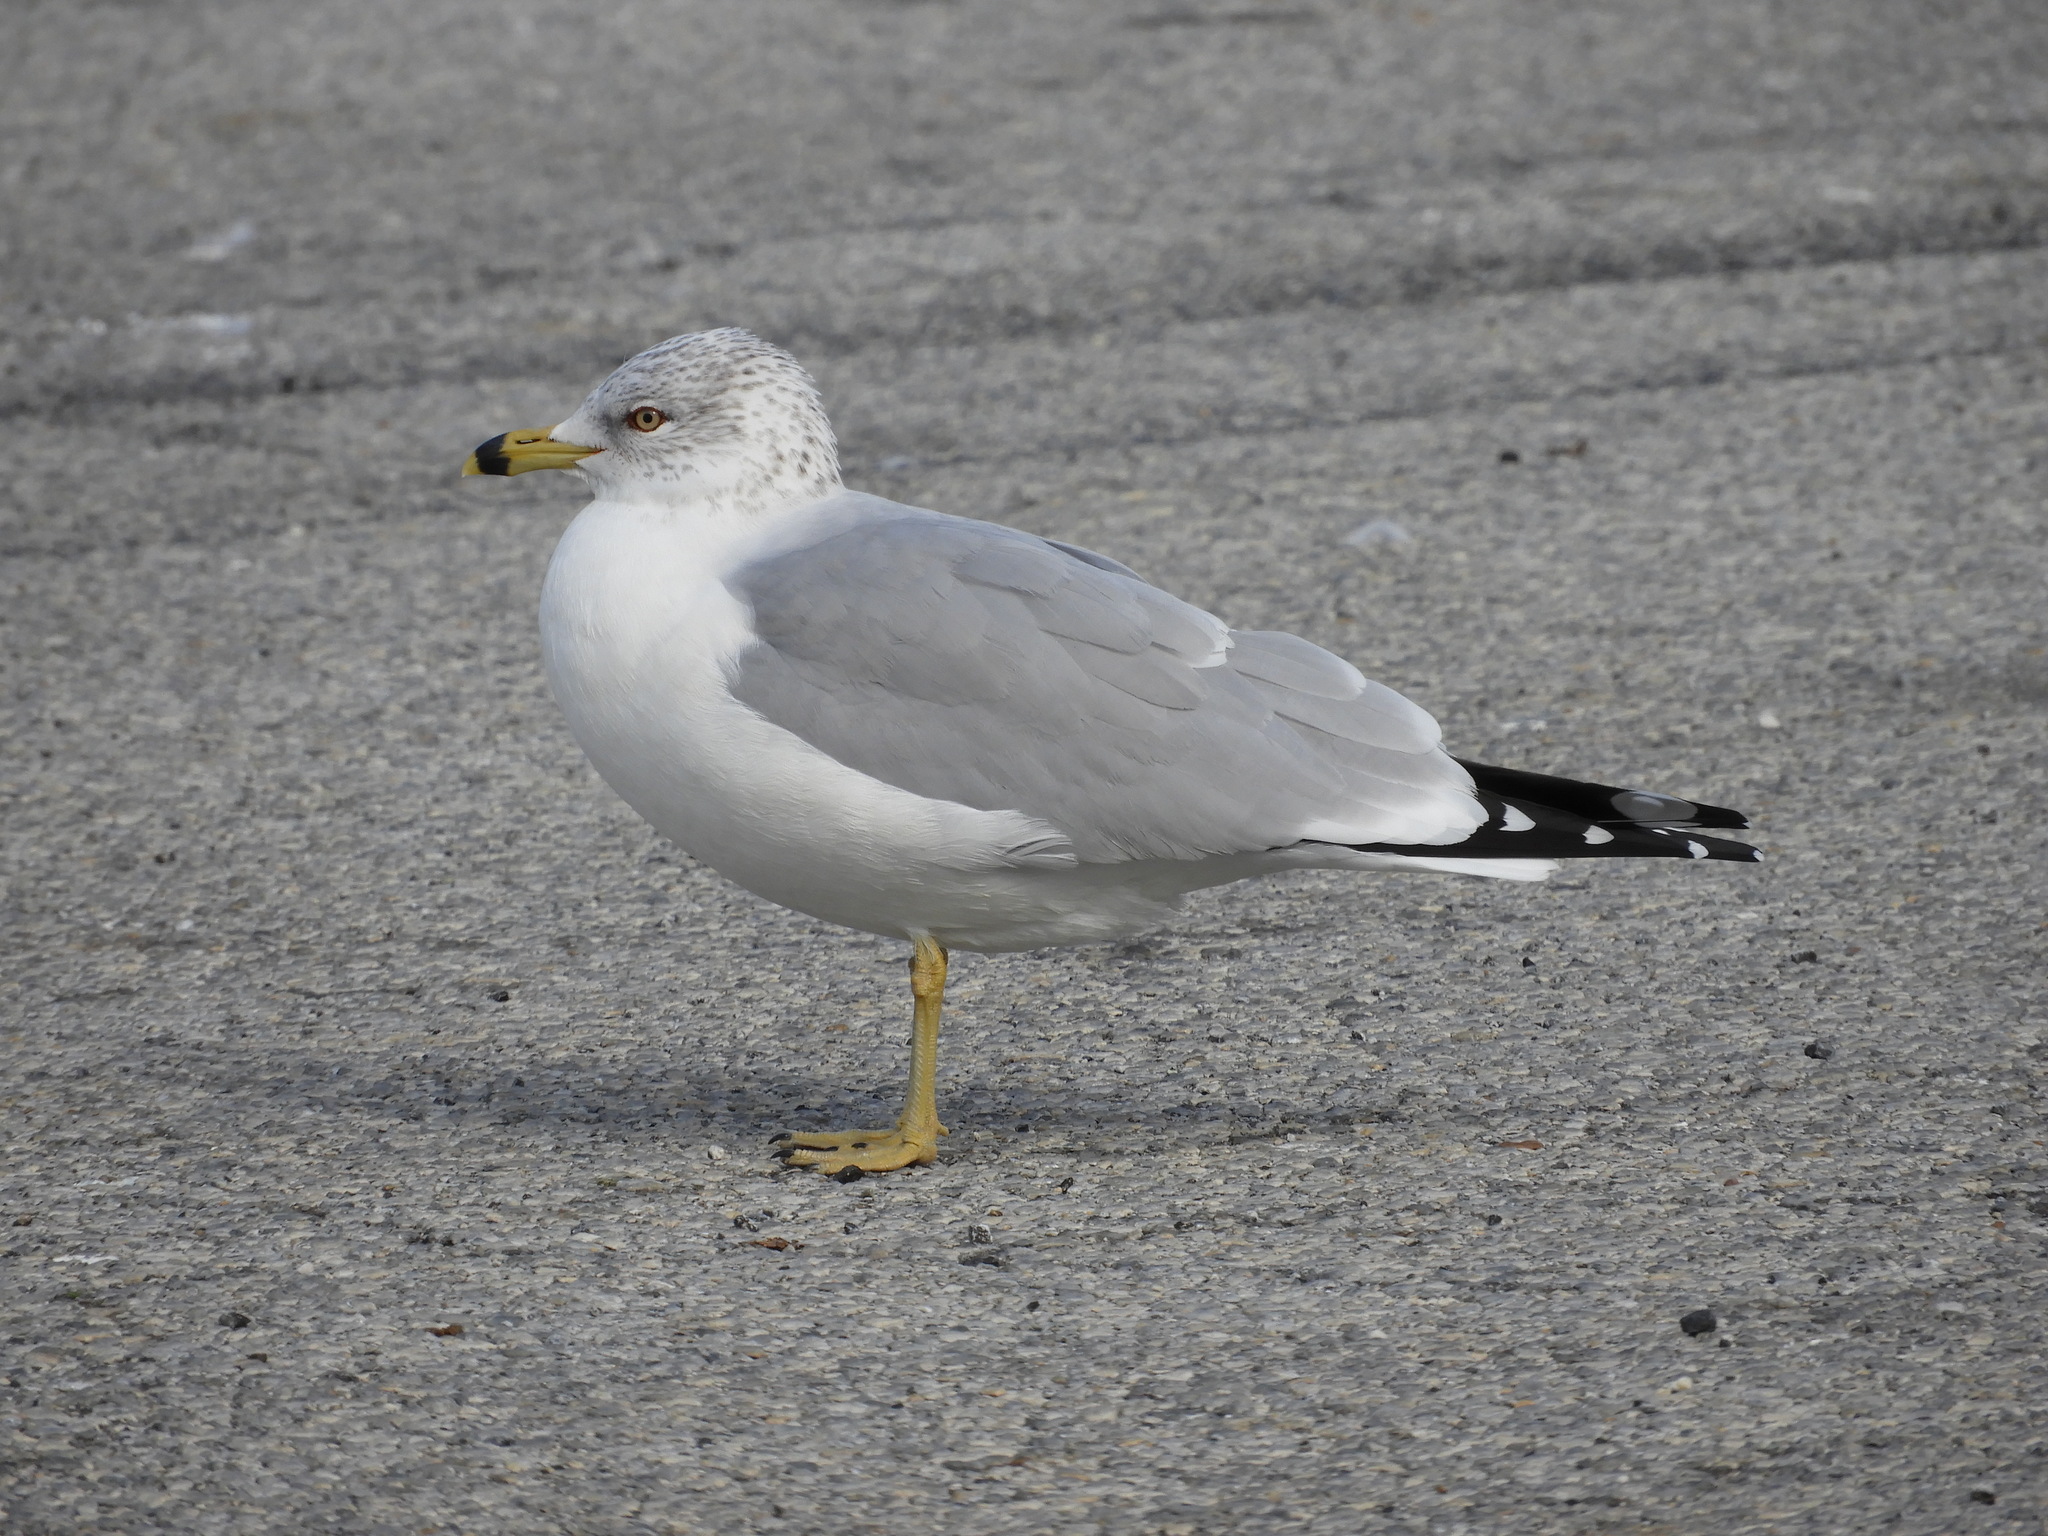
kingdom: Animalia
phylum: Chordata
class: Aves
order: Charadriiformes
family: Laridae
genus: Larus
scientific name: Larus delawarensis
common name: Ring-billed gull
